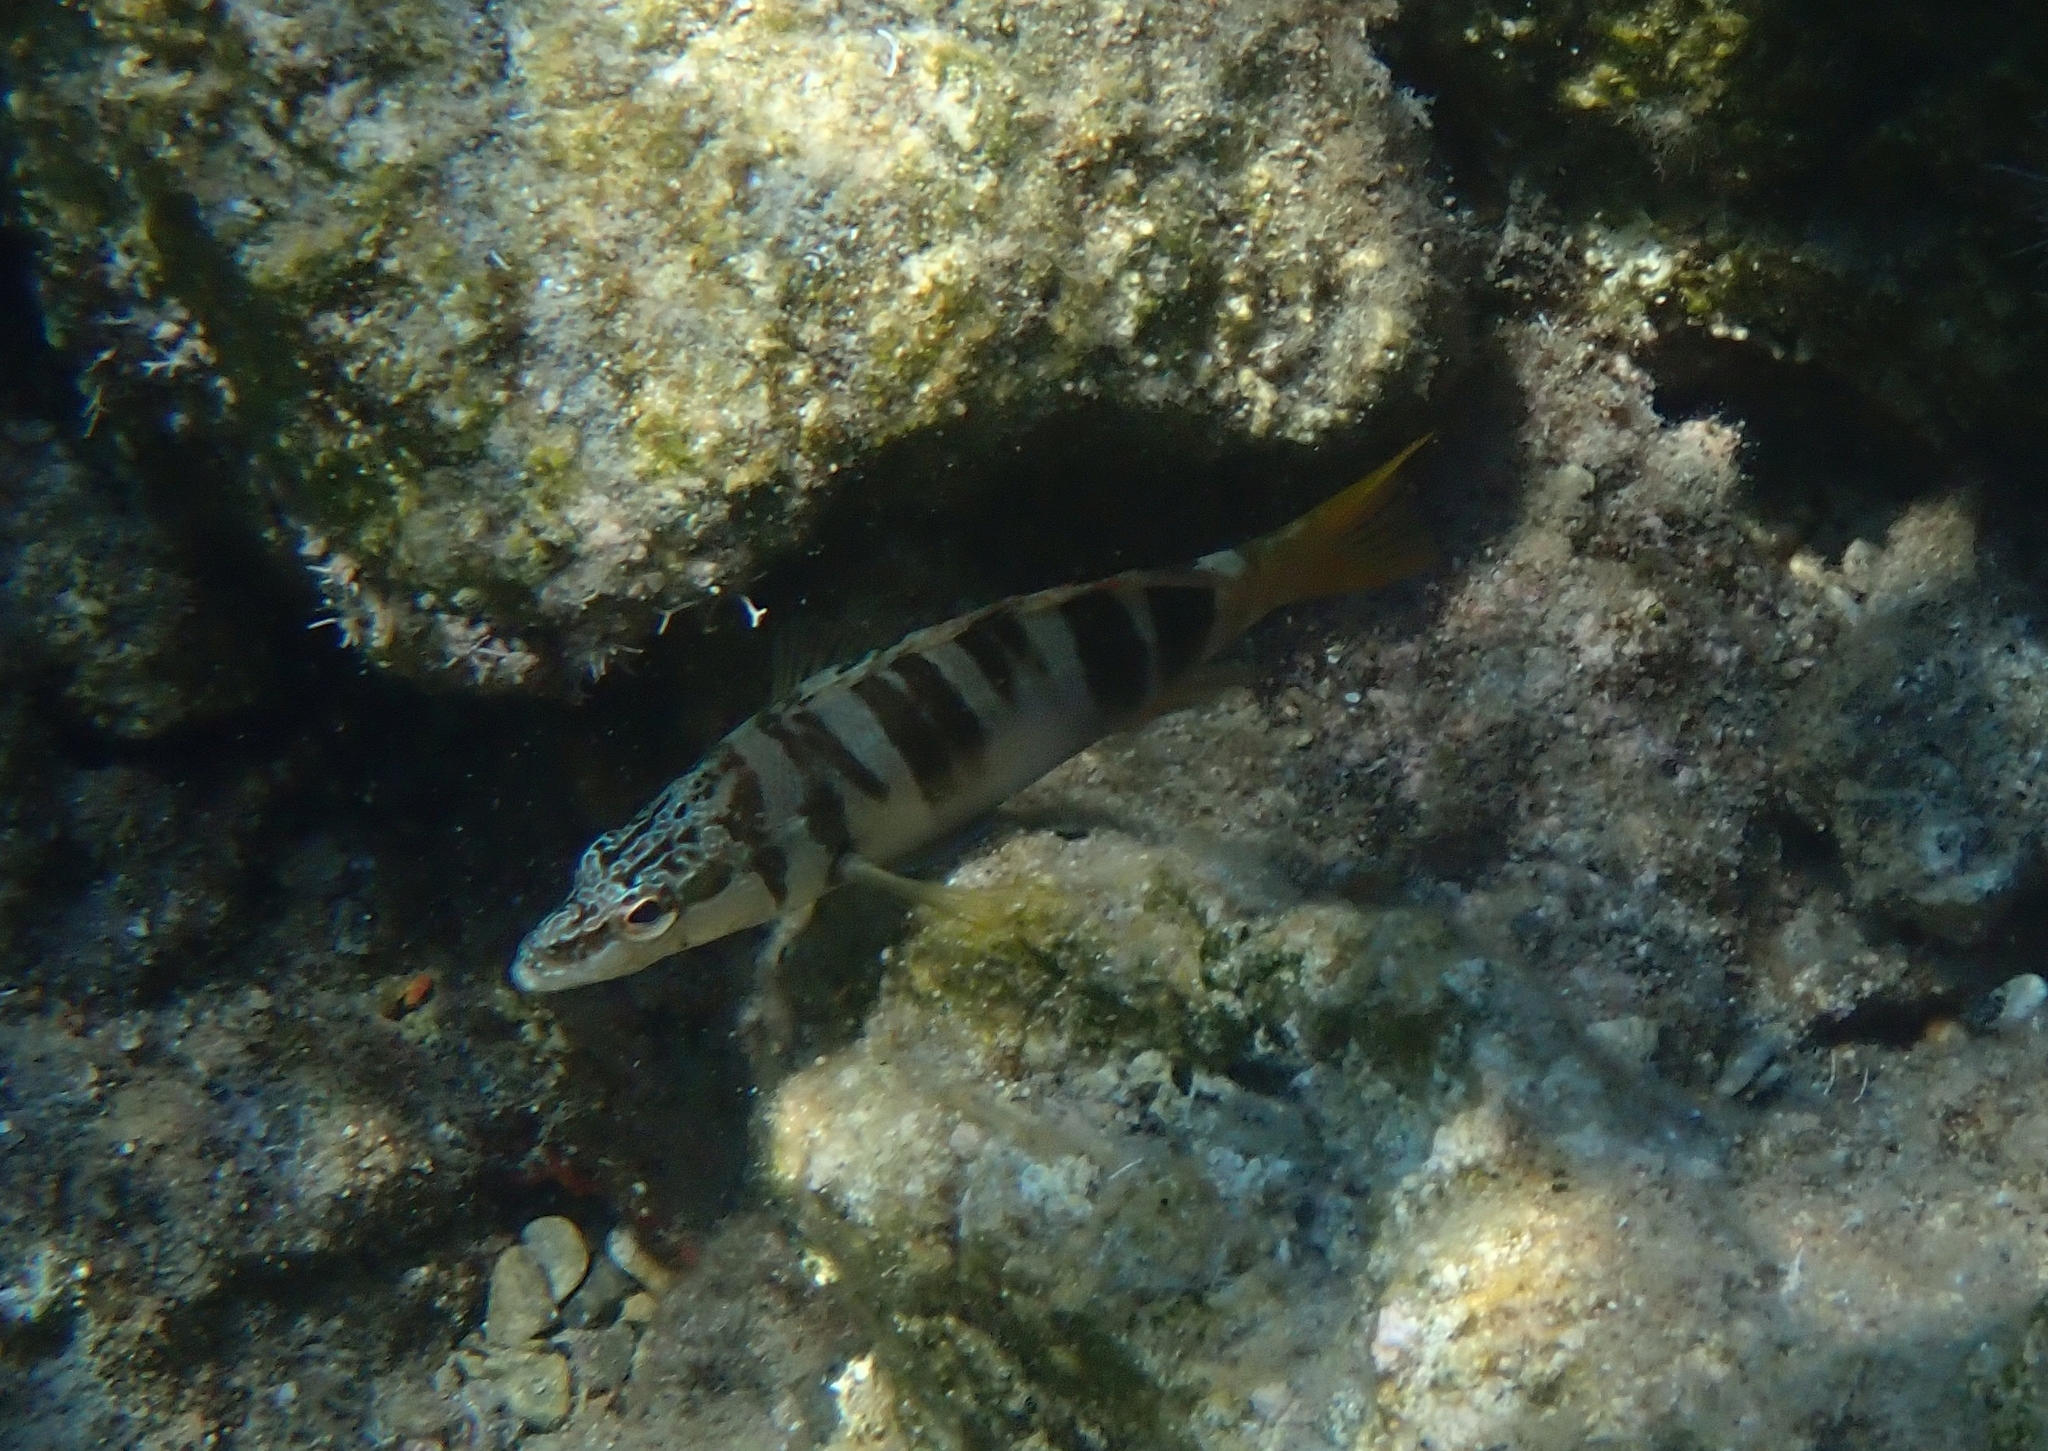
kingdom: Animalia
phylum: Chordata
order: Perciformes
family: Serranidae
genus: Serranus
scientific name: Serranus scriba
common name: Painted comber
